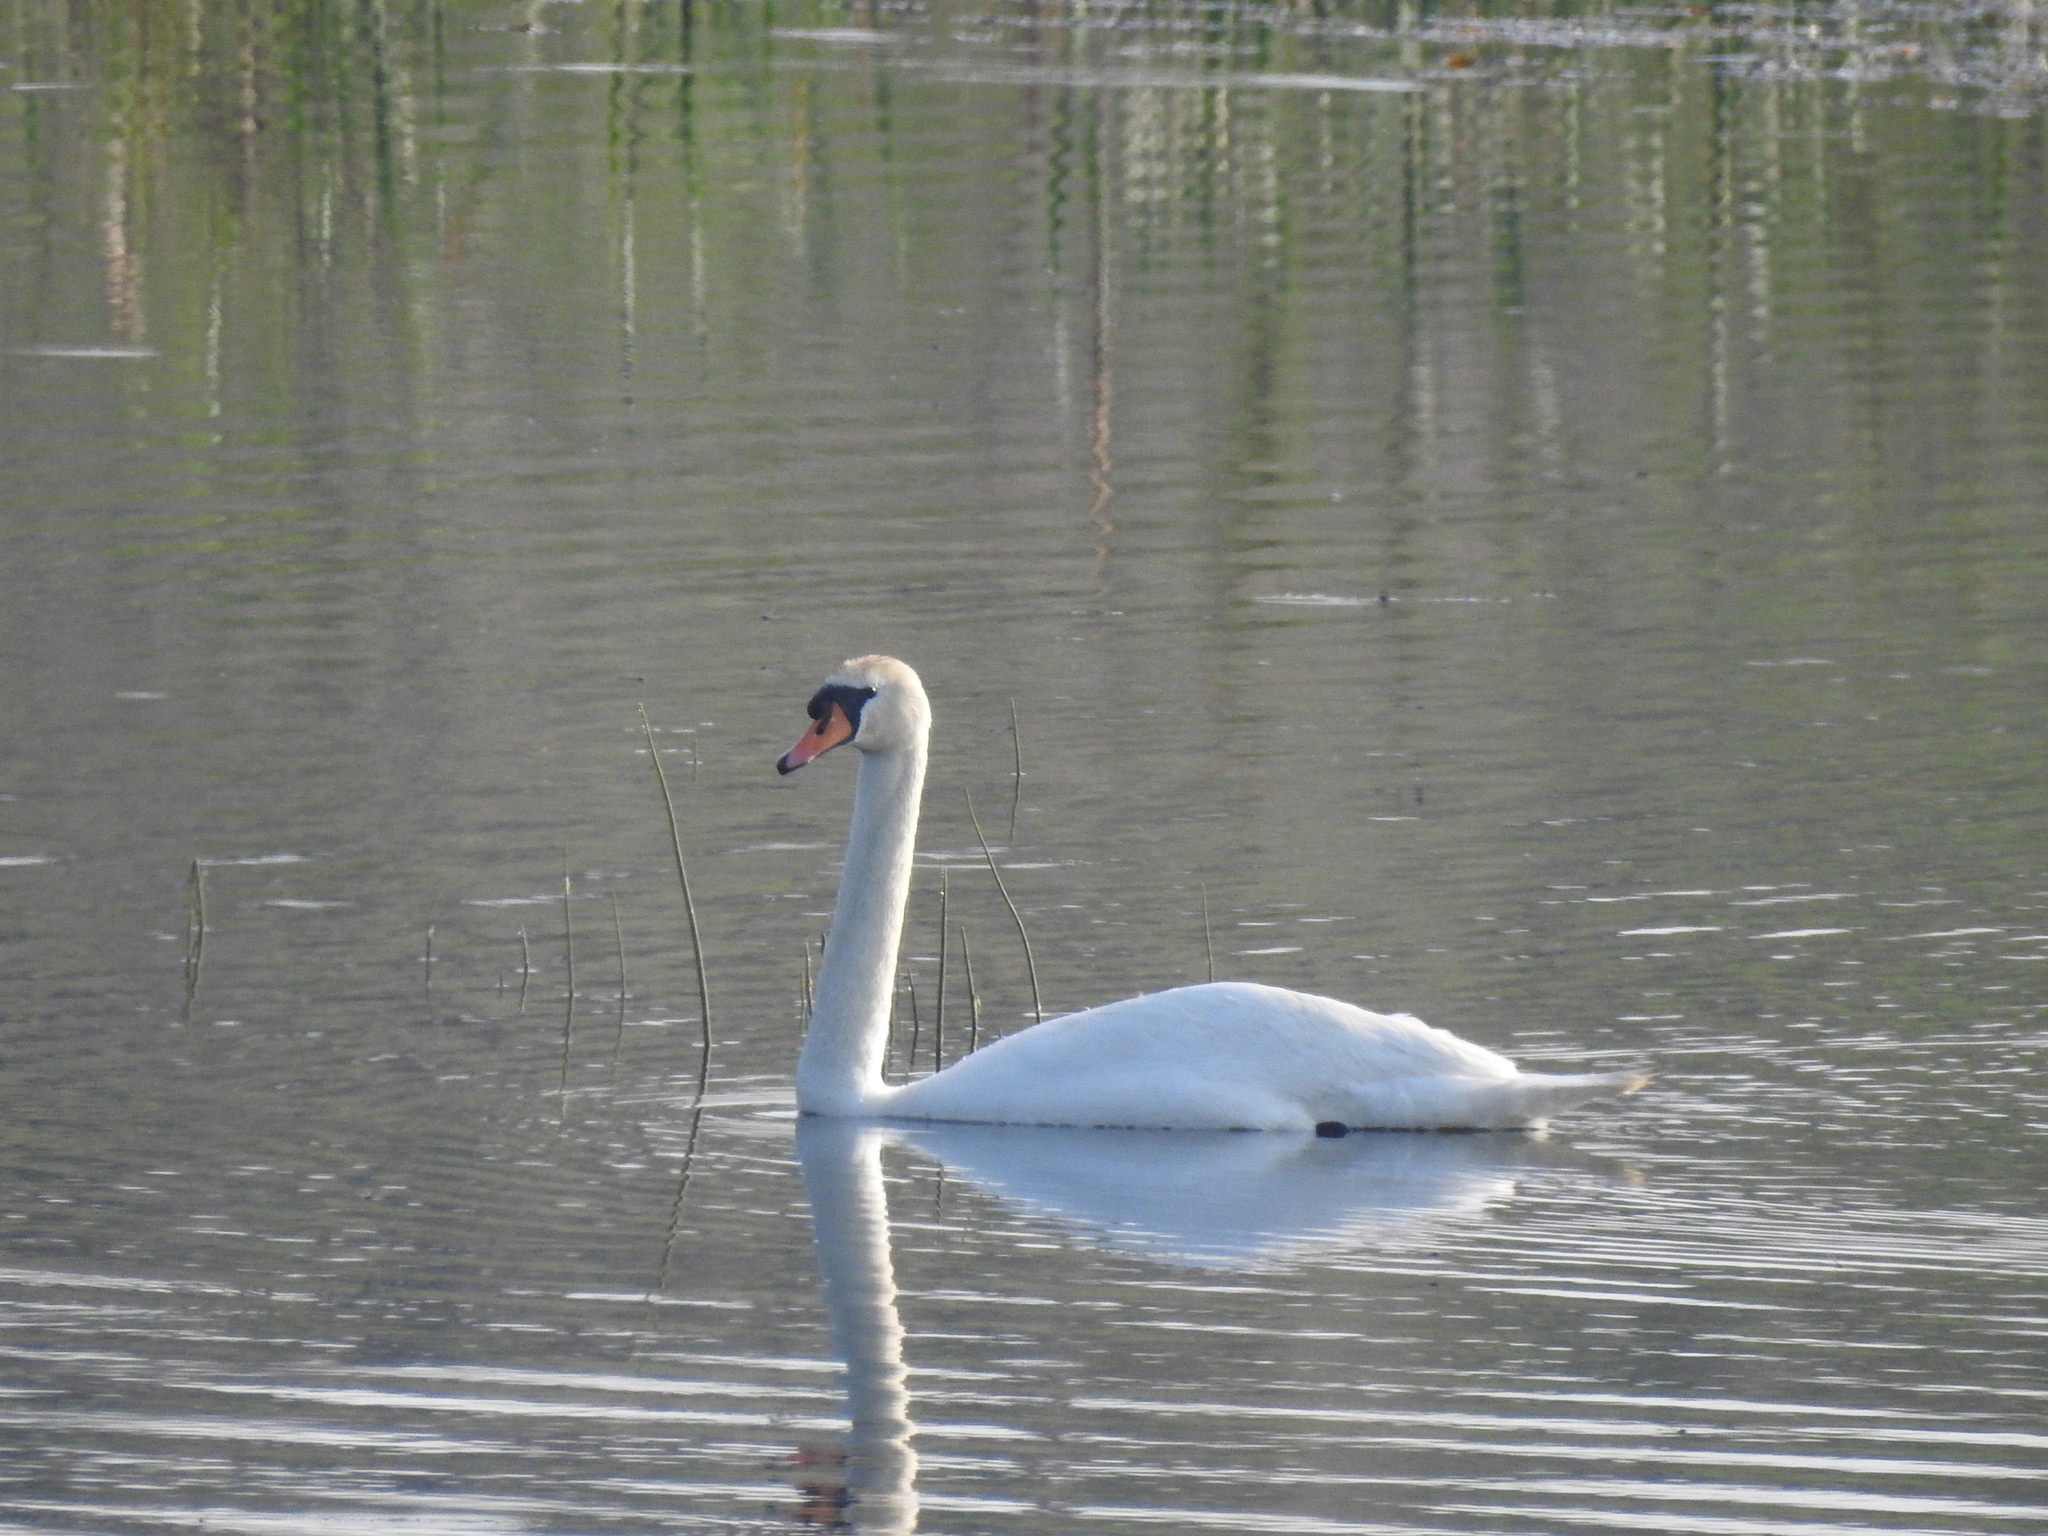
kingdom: Animalia
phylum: Chordata
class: Aves
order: Anseriformes
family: Anatidae
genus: Cygnus
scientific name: Cygnus olor
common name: Mute swan
